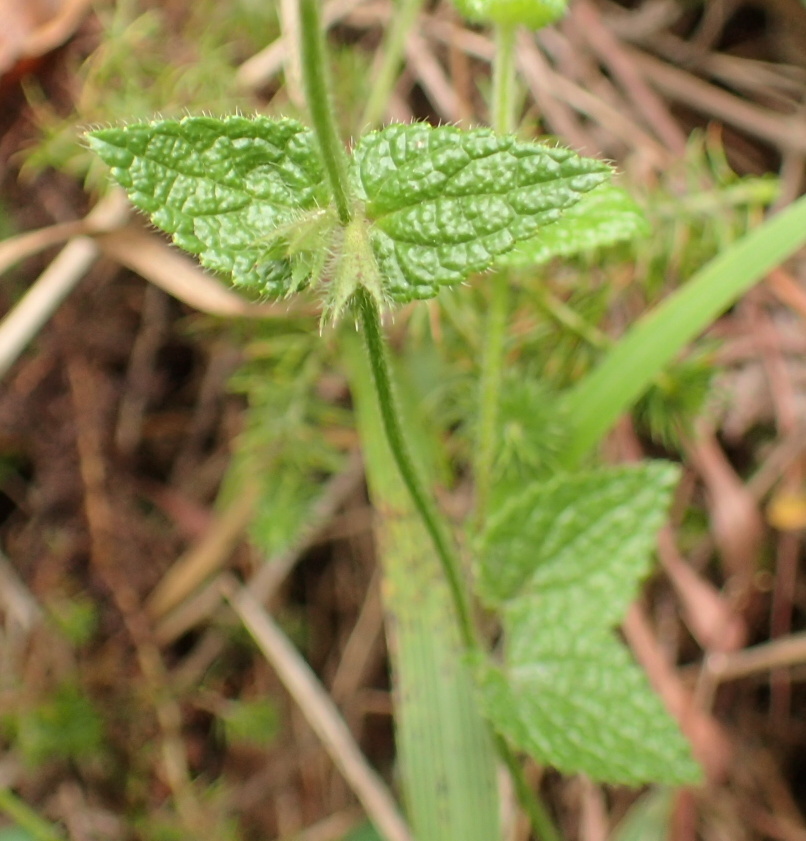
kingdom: Plantae
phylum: Tracheophyta
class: Magnoliopsida
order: Lamiales
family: Lamiaceae
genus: Stachys
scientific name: Stachys natalensis
